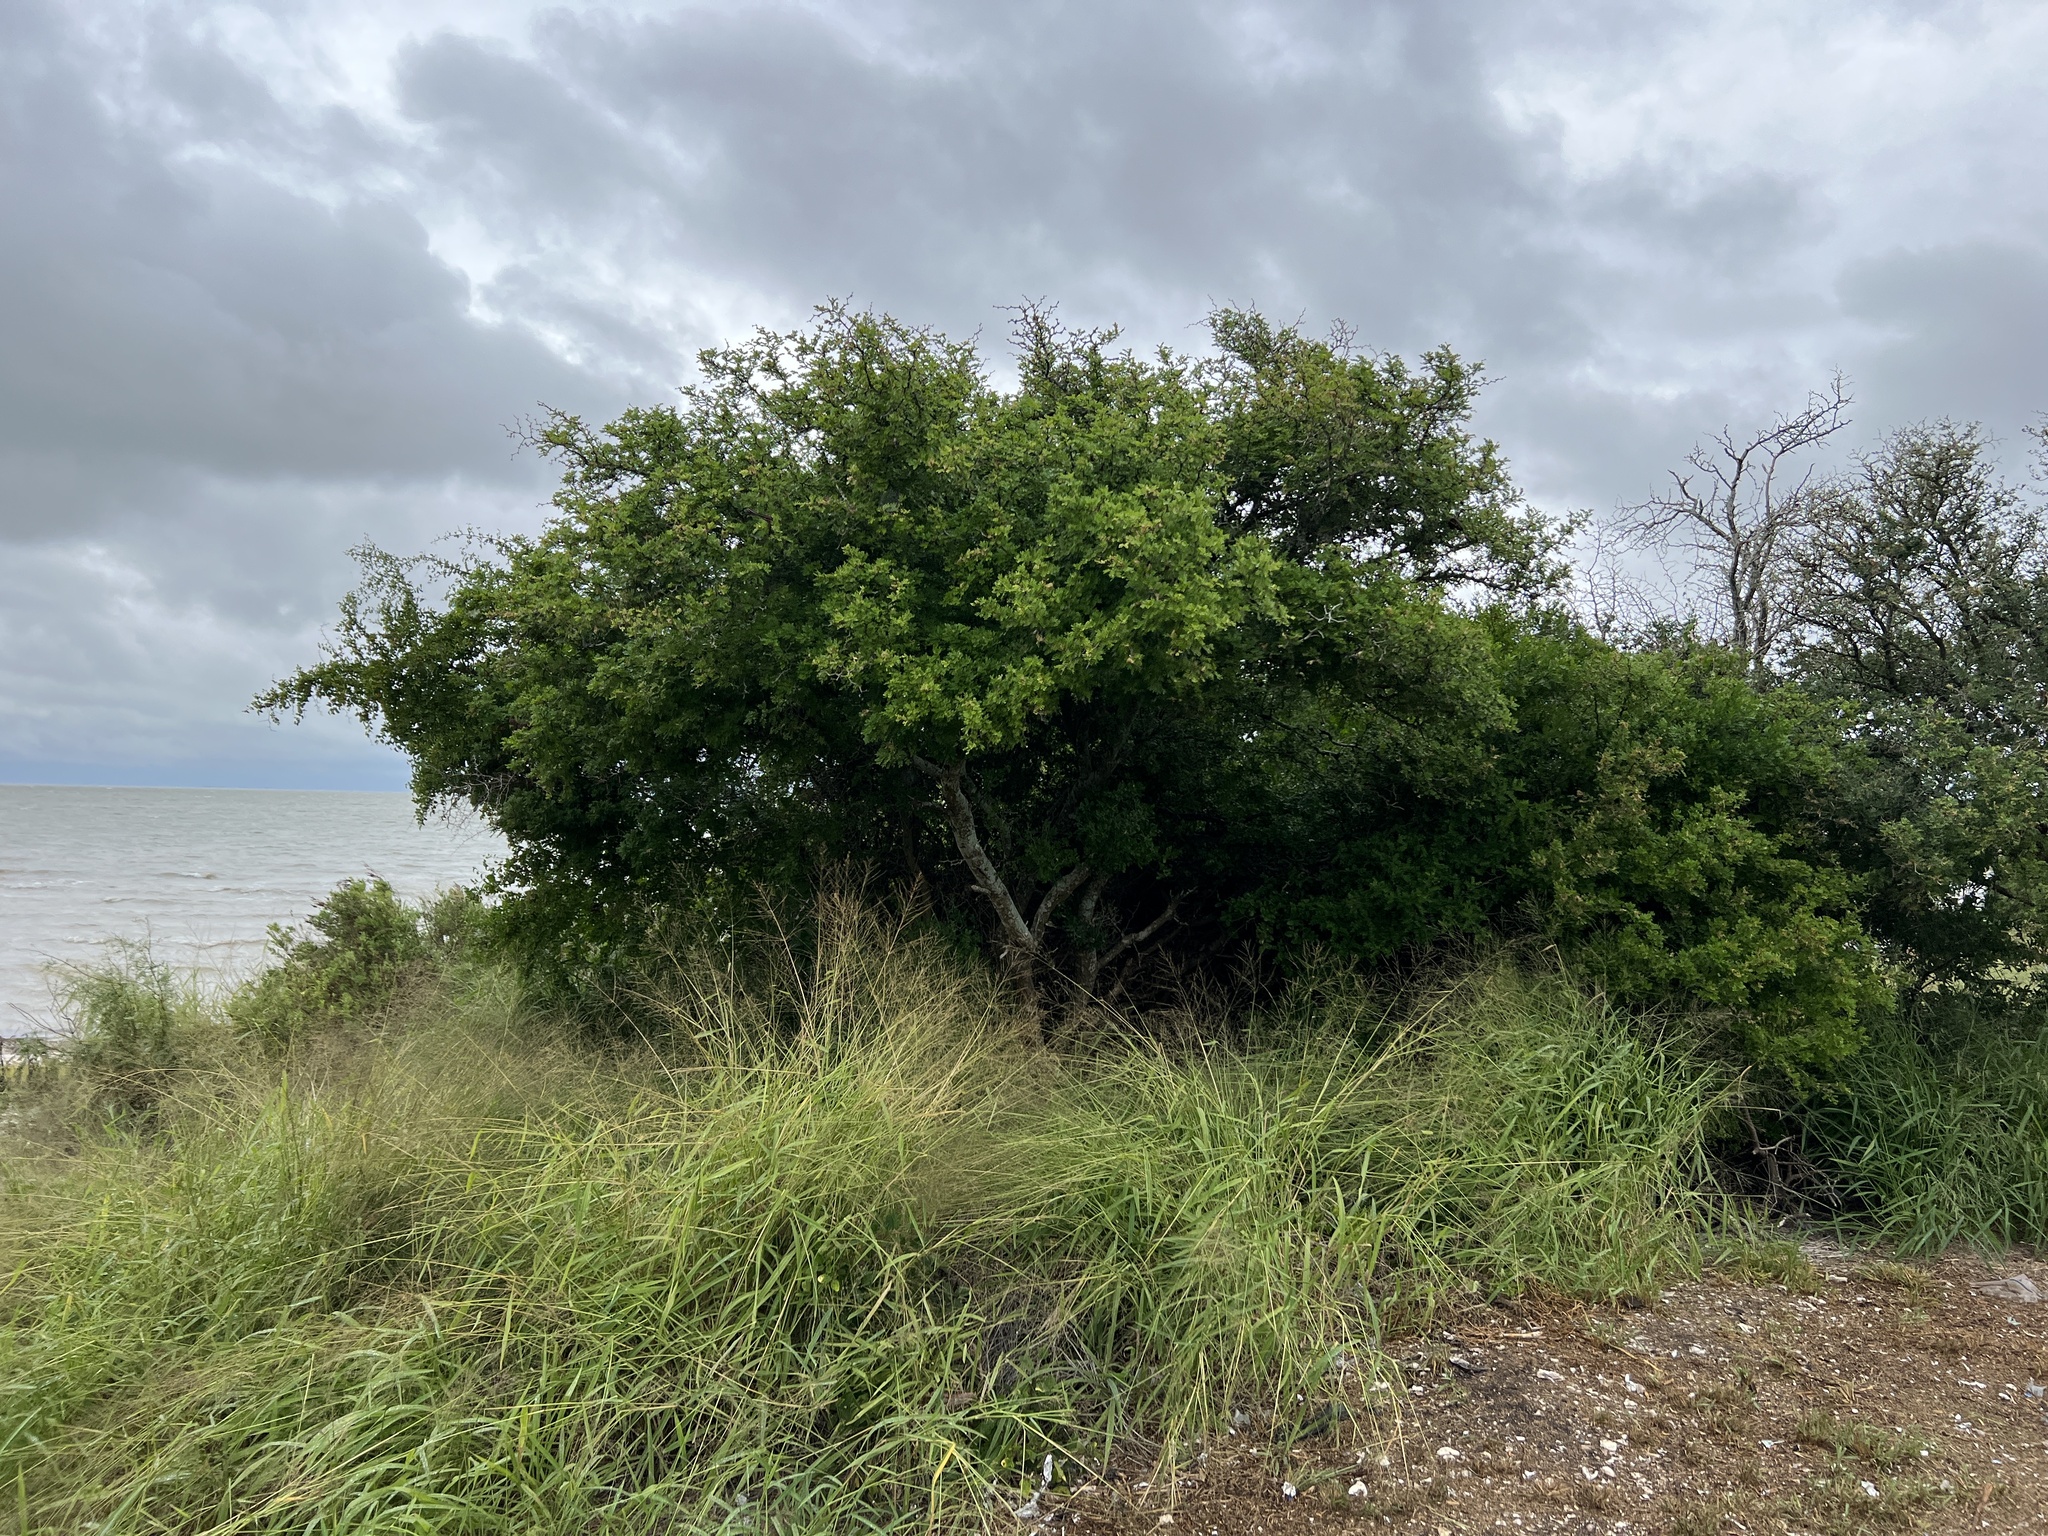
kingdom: Plantae
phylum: Tracheophyta
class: Magnoliopsida
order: Fabales
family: Fabaceae
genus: Ebenopsis
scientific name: Ebenopsis ebano
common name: Ebony blackbead
